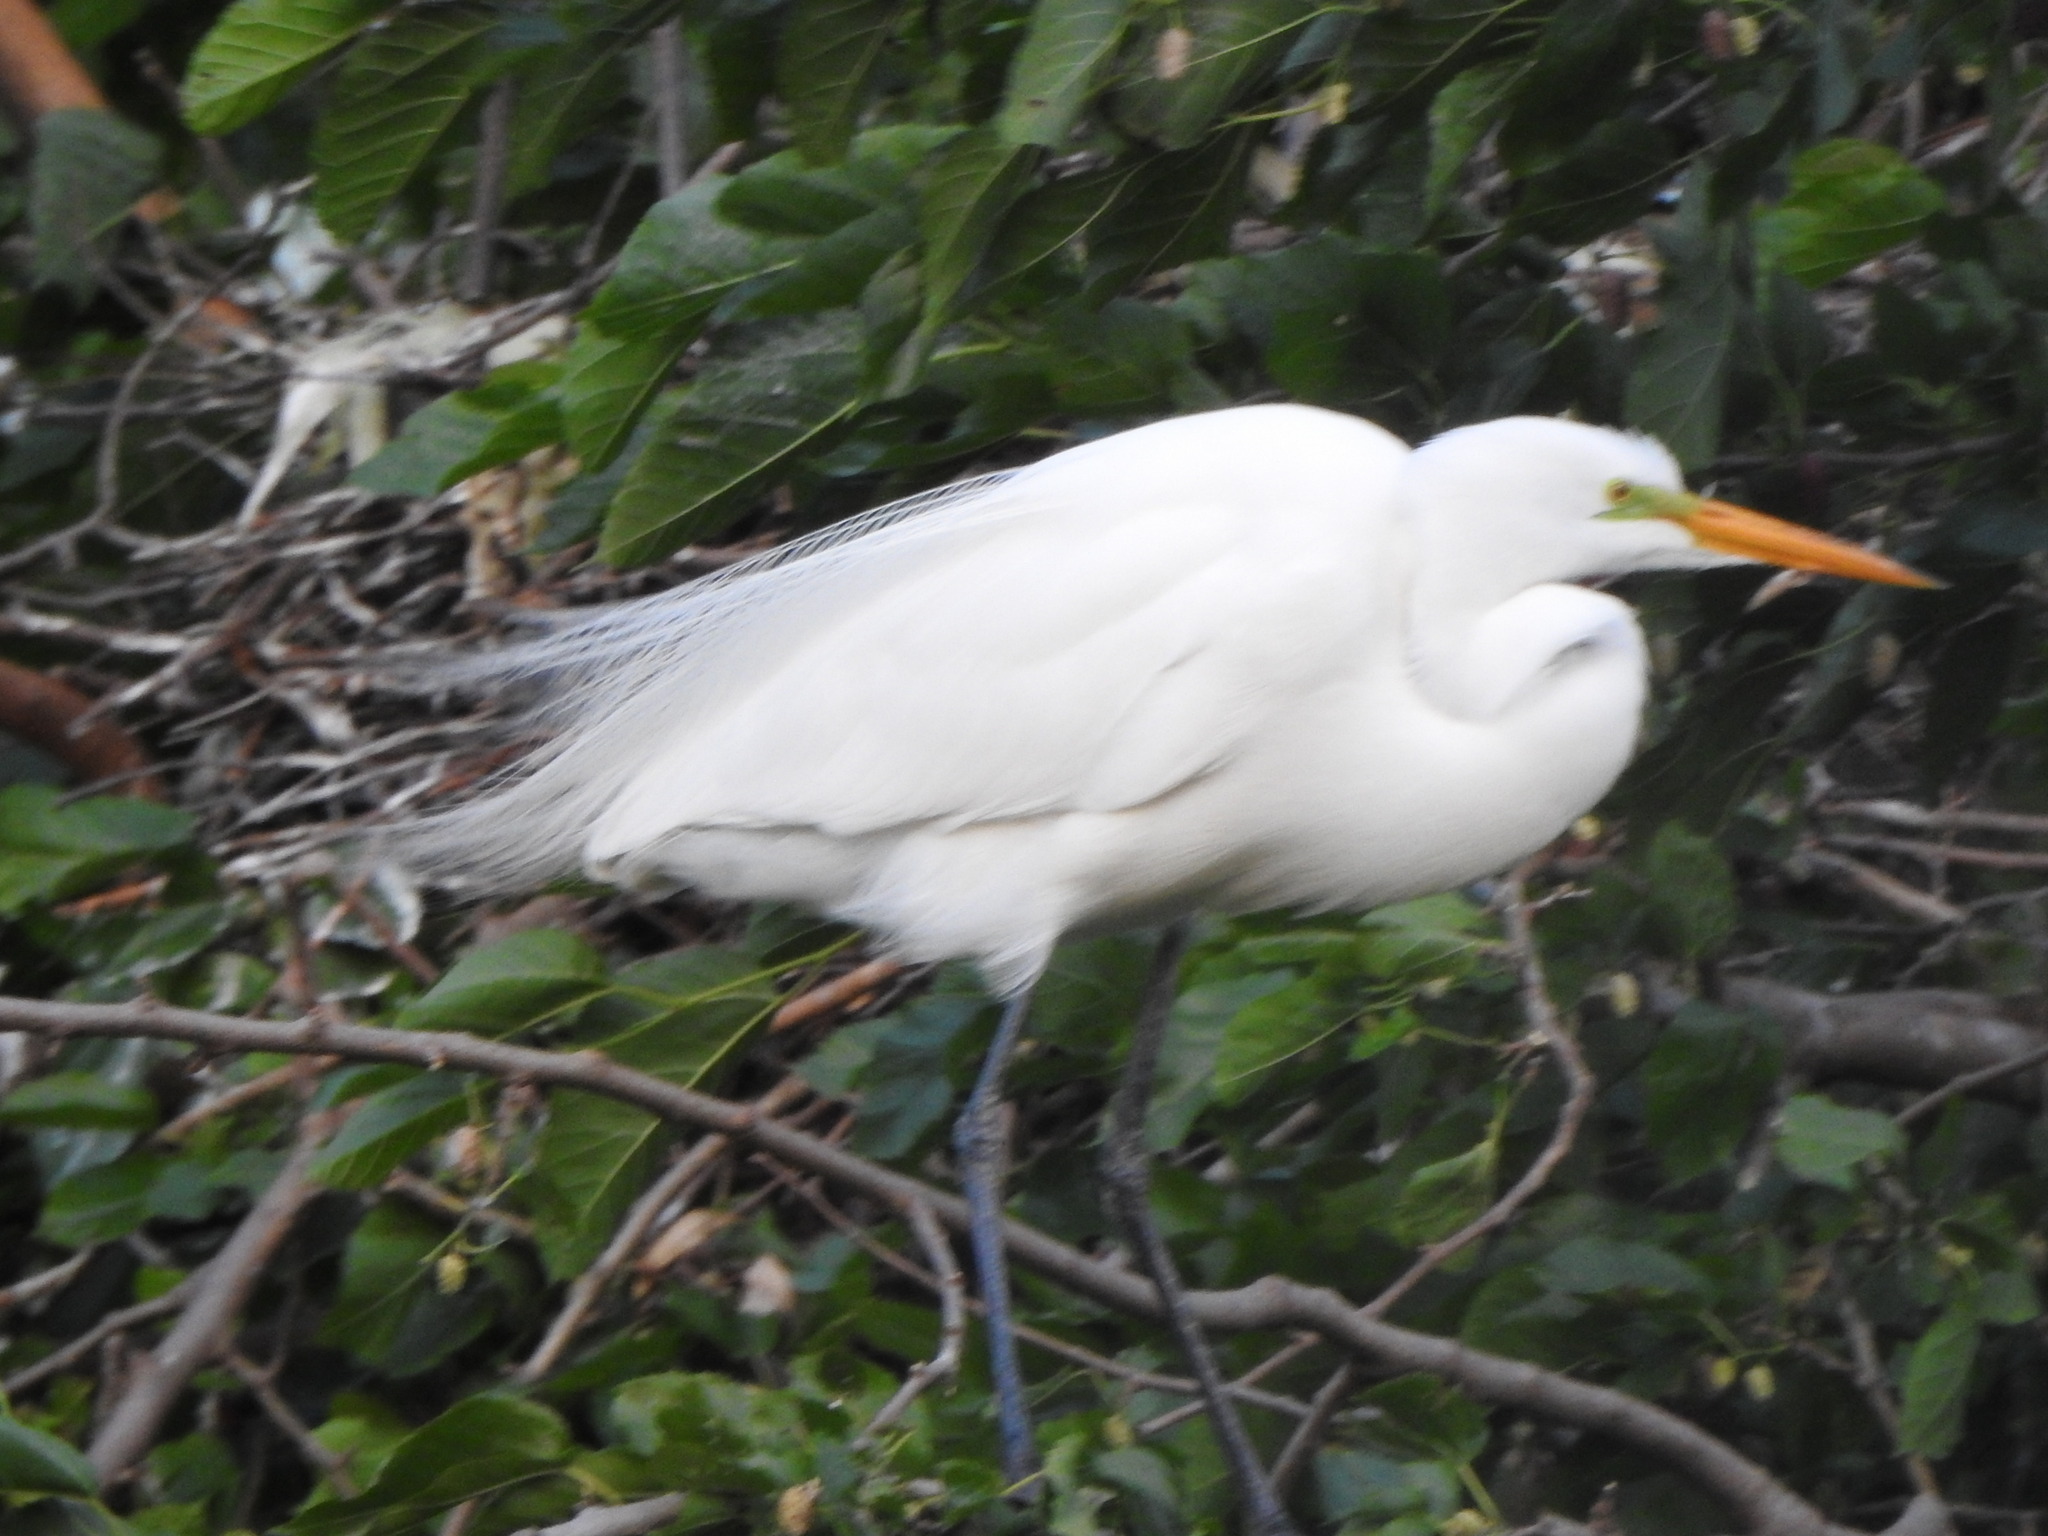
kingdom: Animalia
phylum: Chordata
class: Aves
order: Pelecaniformes
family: Ardeidae
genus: Ardea
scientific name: Ardea alba
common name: Great egret
